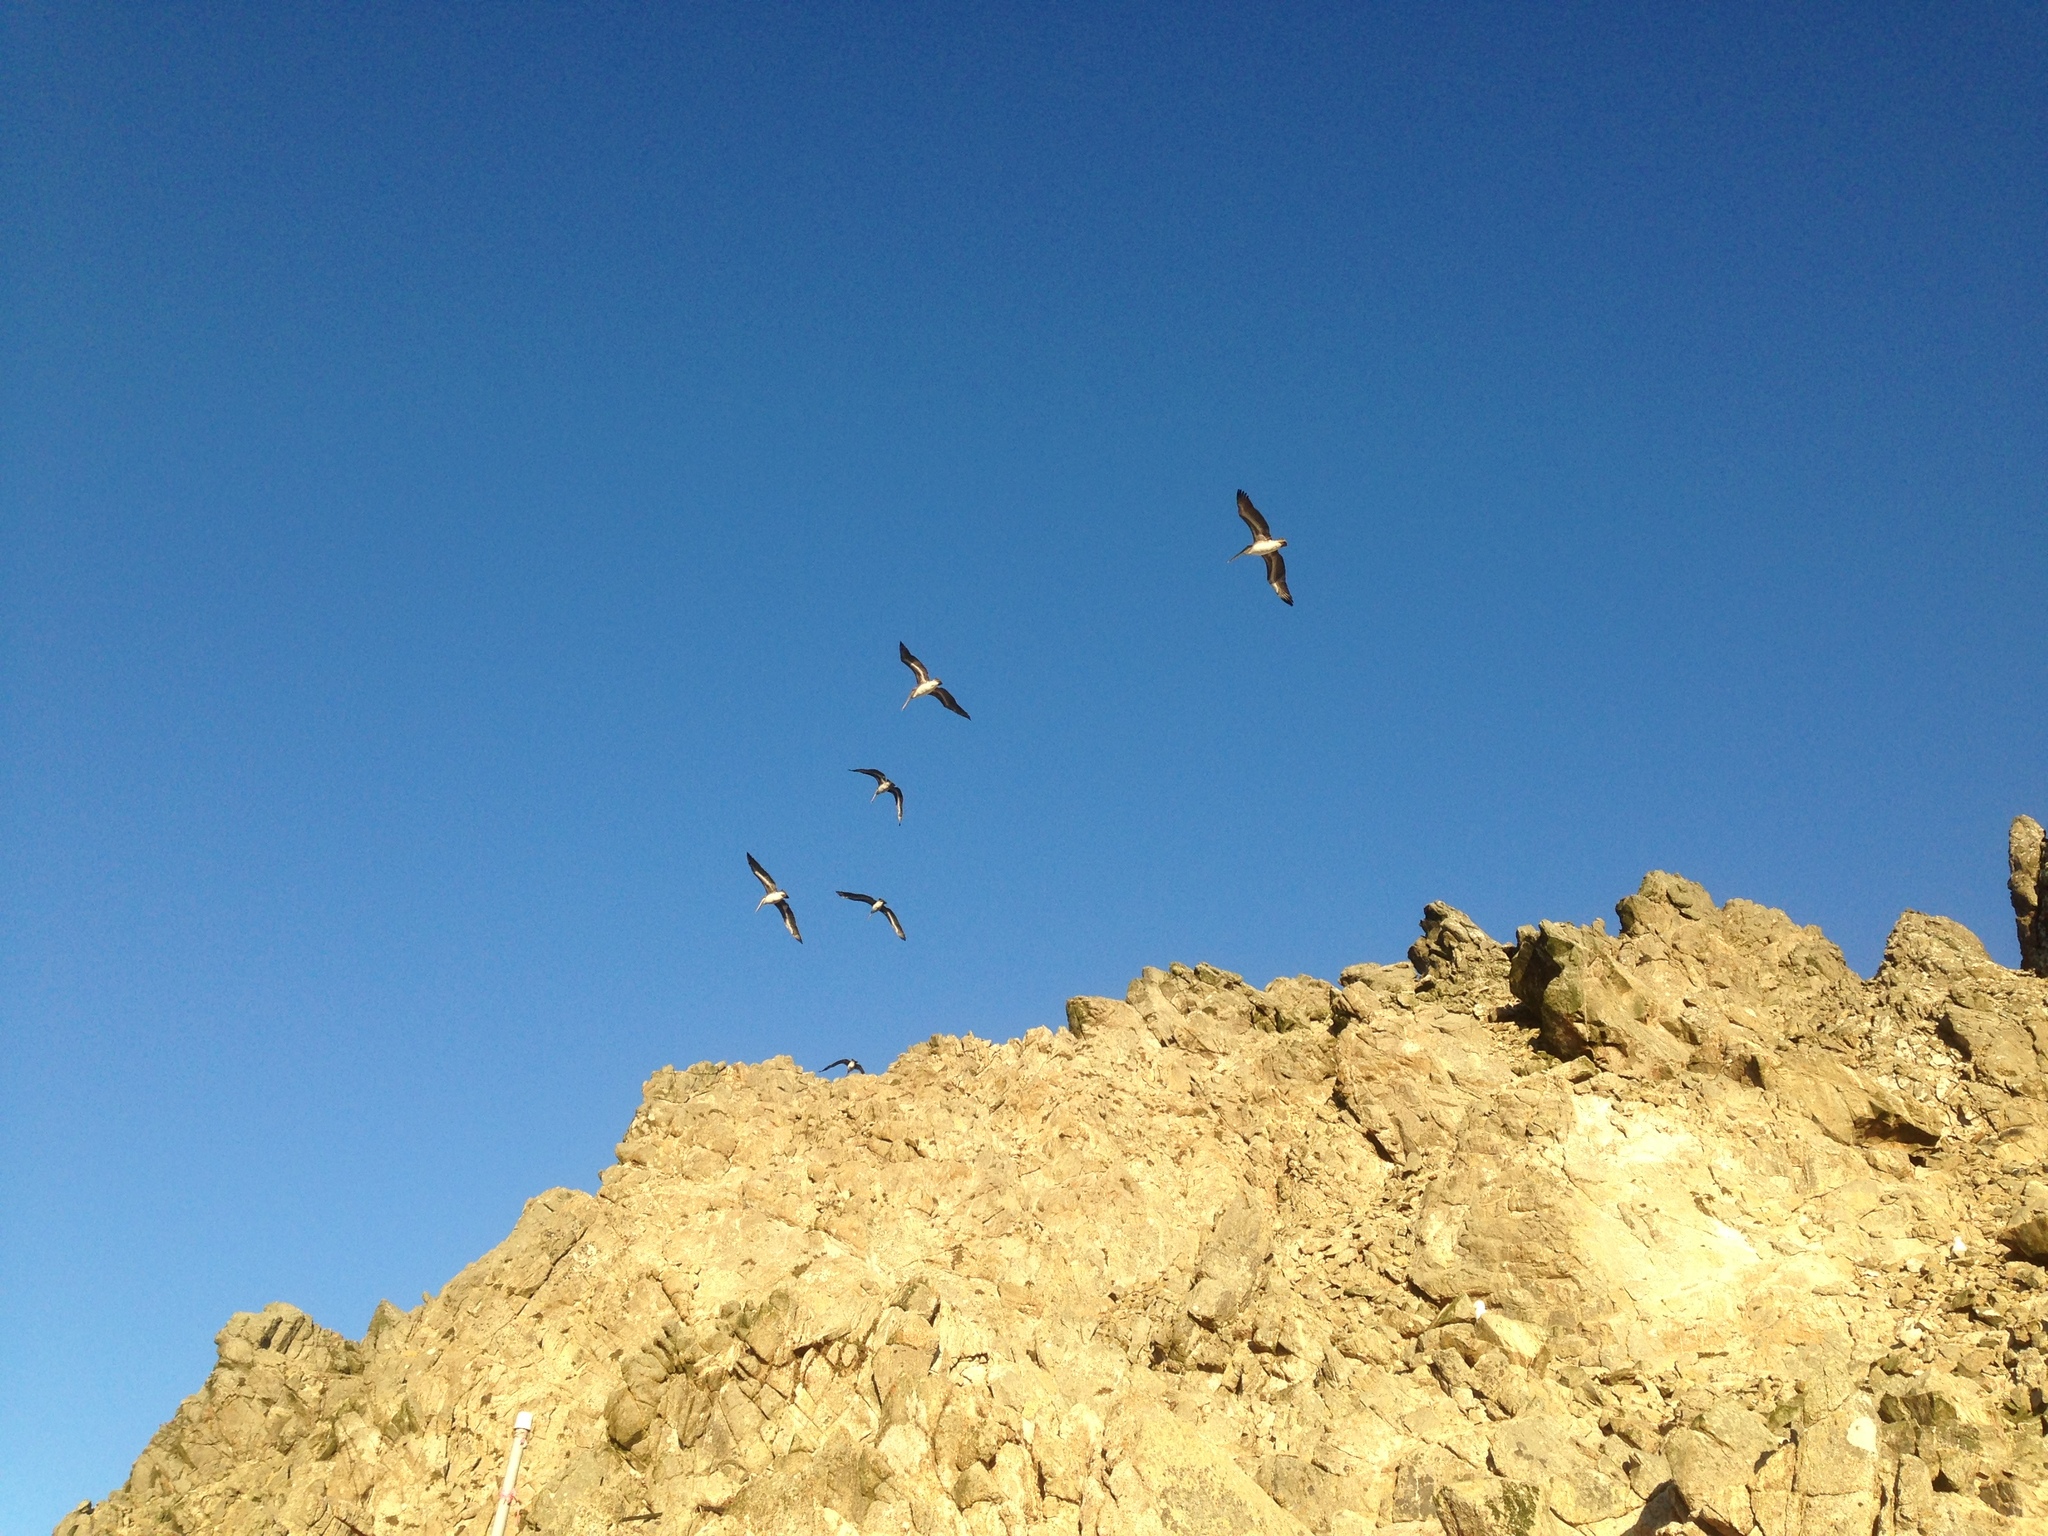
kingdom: Animalia
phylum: Chordata
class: Aves
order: Pelecaniformes
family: Pelecanidae
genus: Pelecanus
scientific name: Pelecanus occidentalis
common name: Brown pelican
